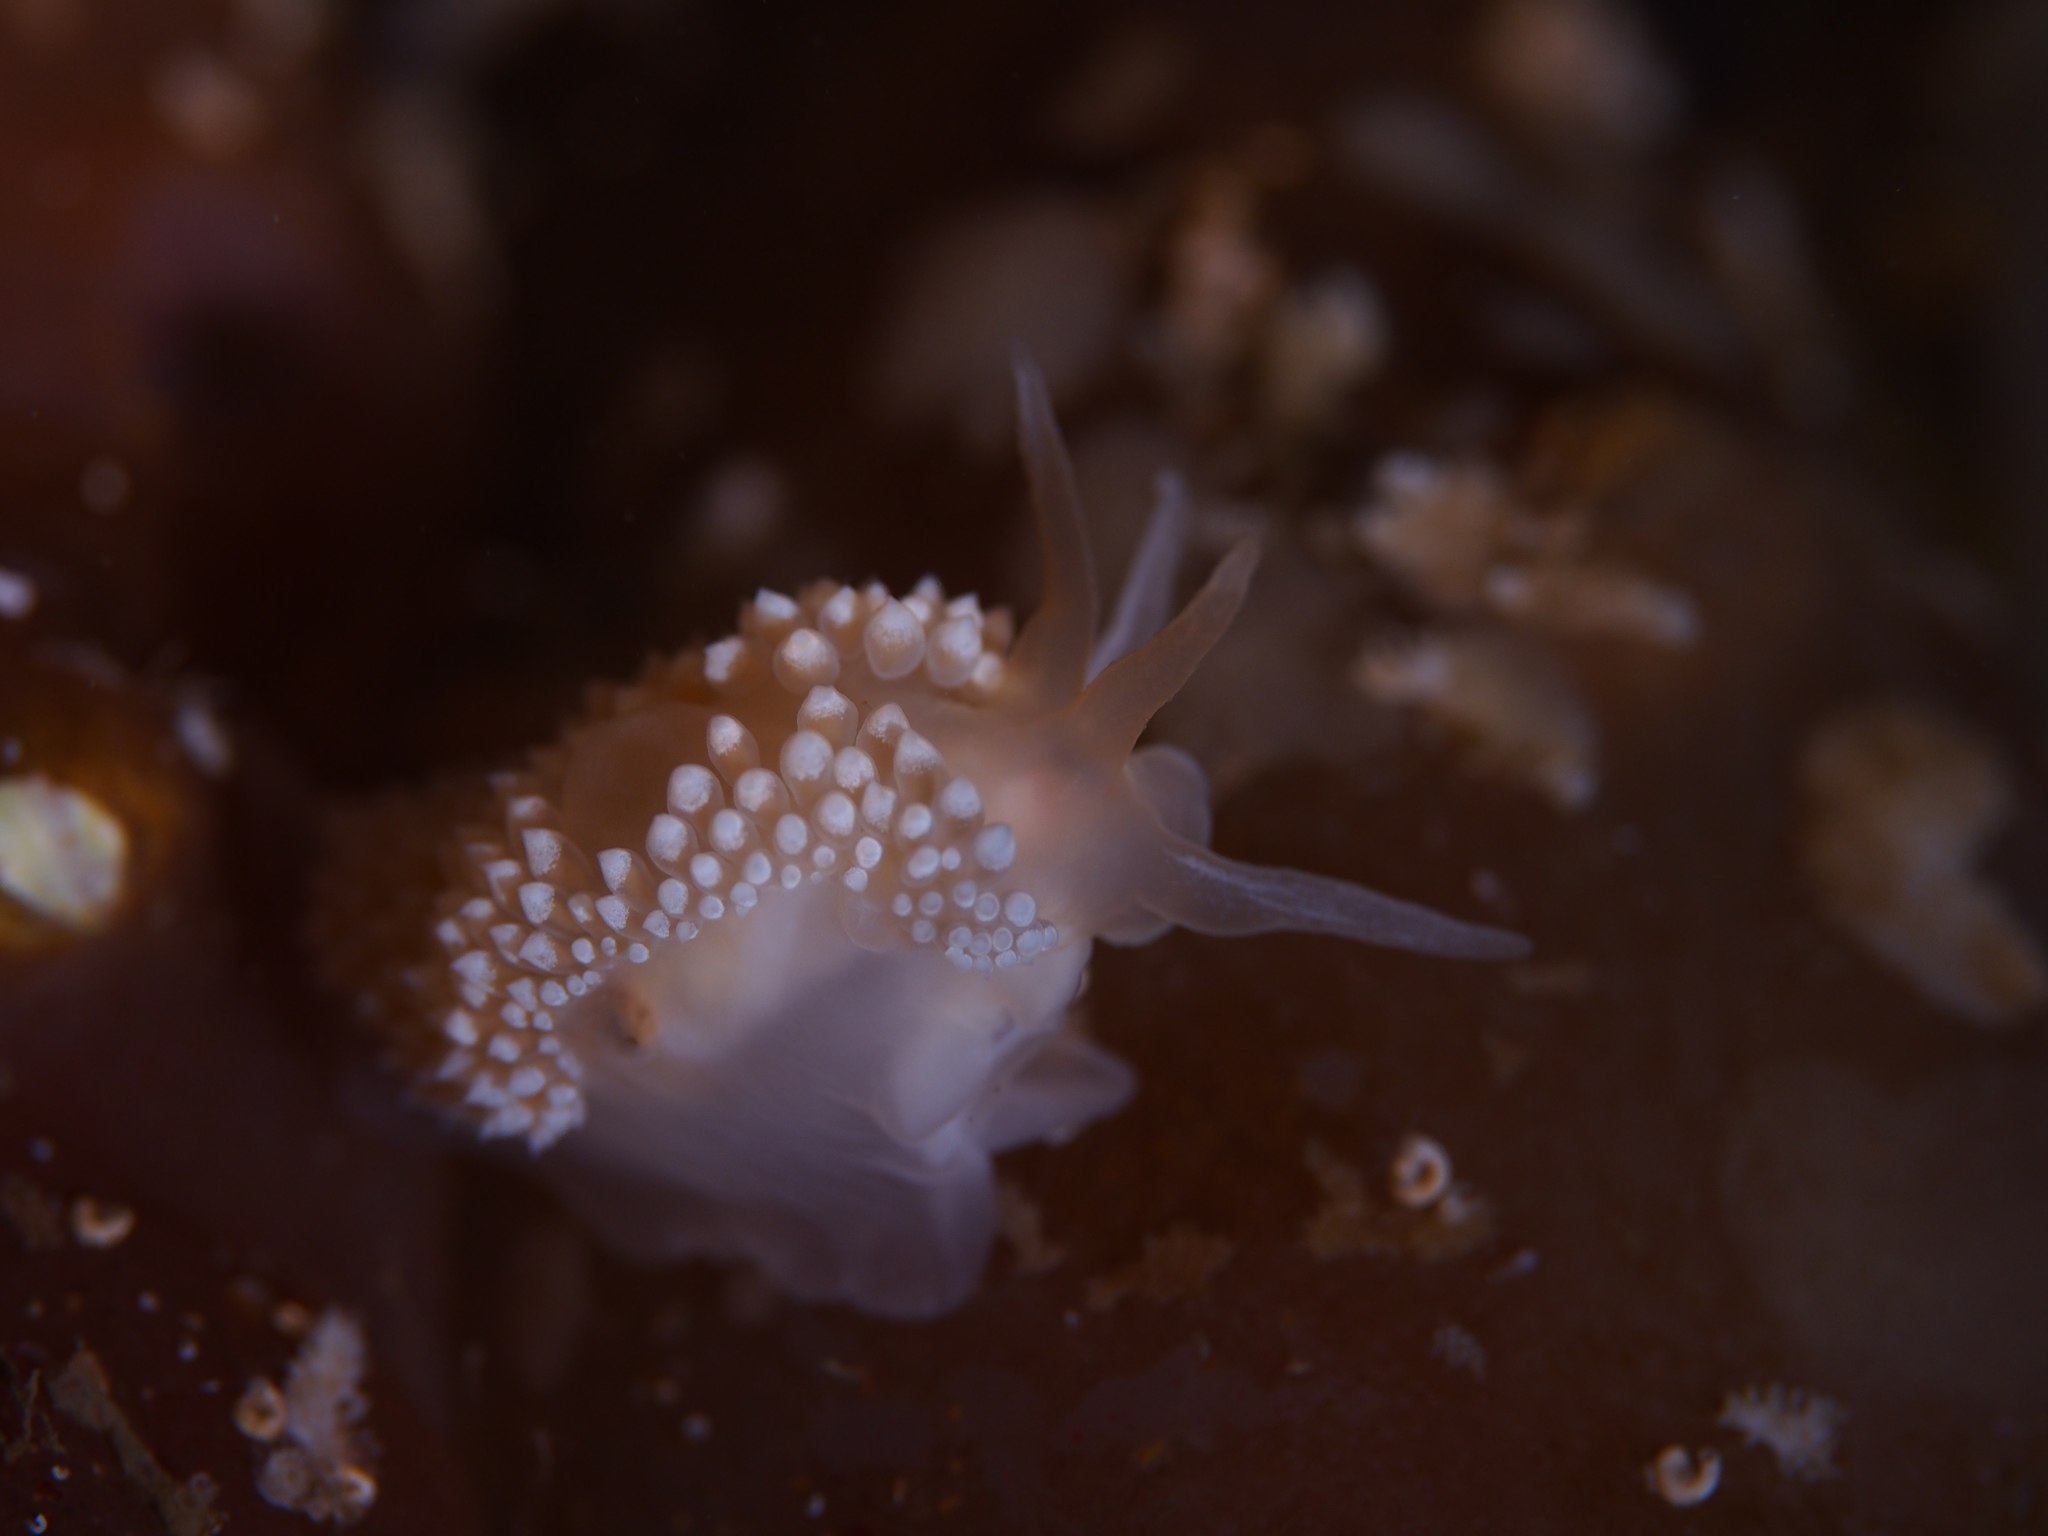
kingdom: Animalia
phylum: Mollusca
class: Gastropoda
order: Nudibranchia
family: Coryphellidae
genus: Coryphella
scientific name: Coryphella verrucosa
